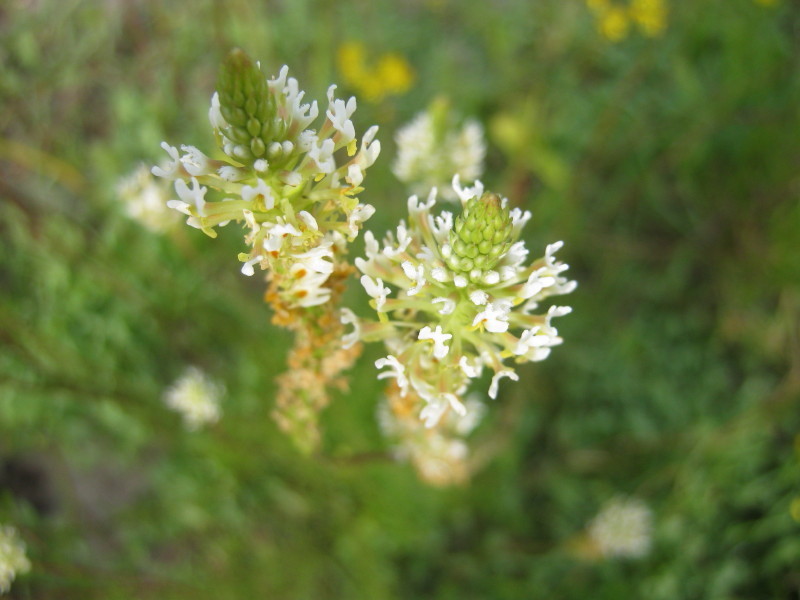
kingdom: Plantae
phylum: Tracheophyta
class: Magnoliopsida
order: Lamiales
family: Scrophulariaceae
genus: Hebenstretia
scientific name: Hebenstretia integrifolia
